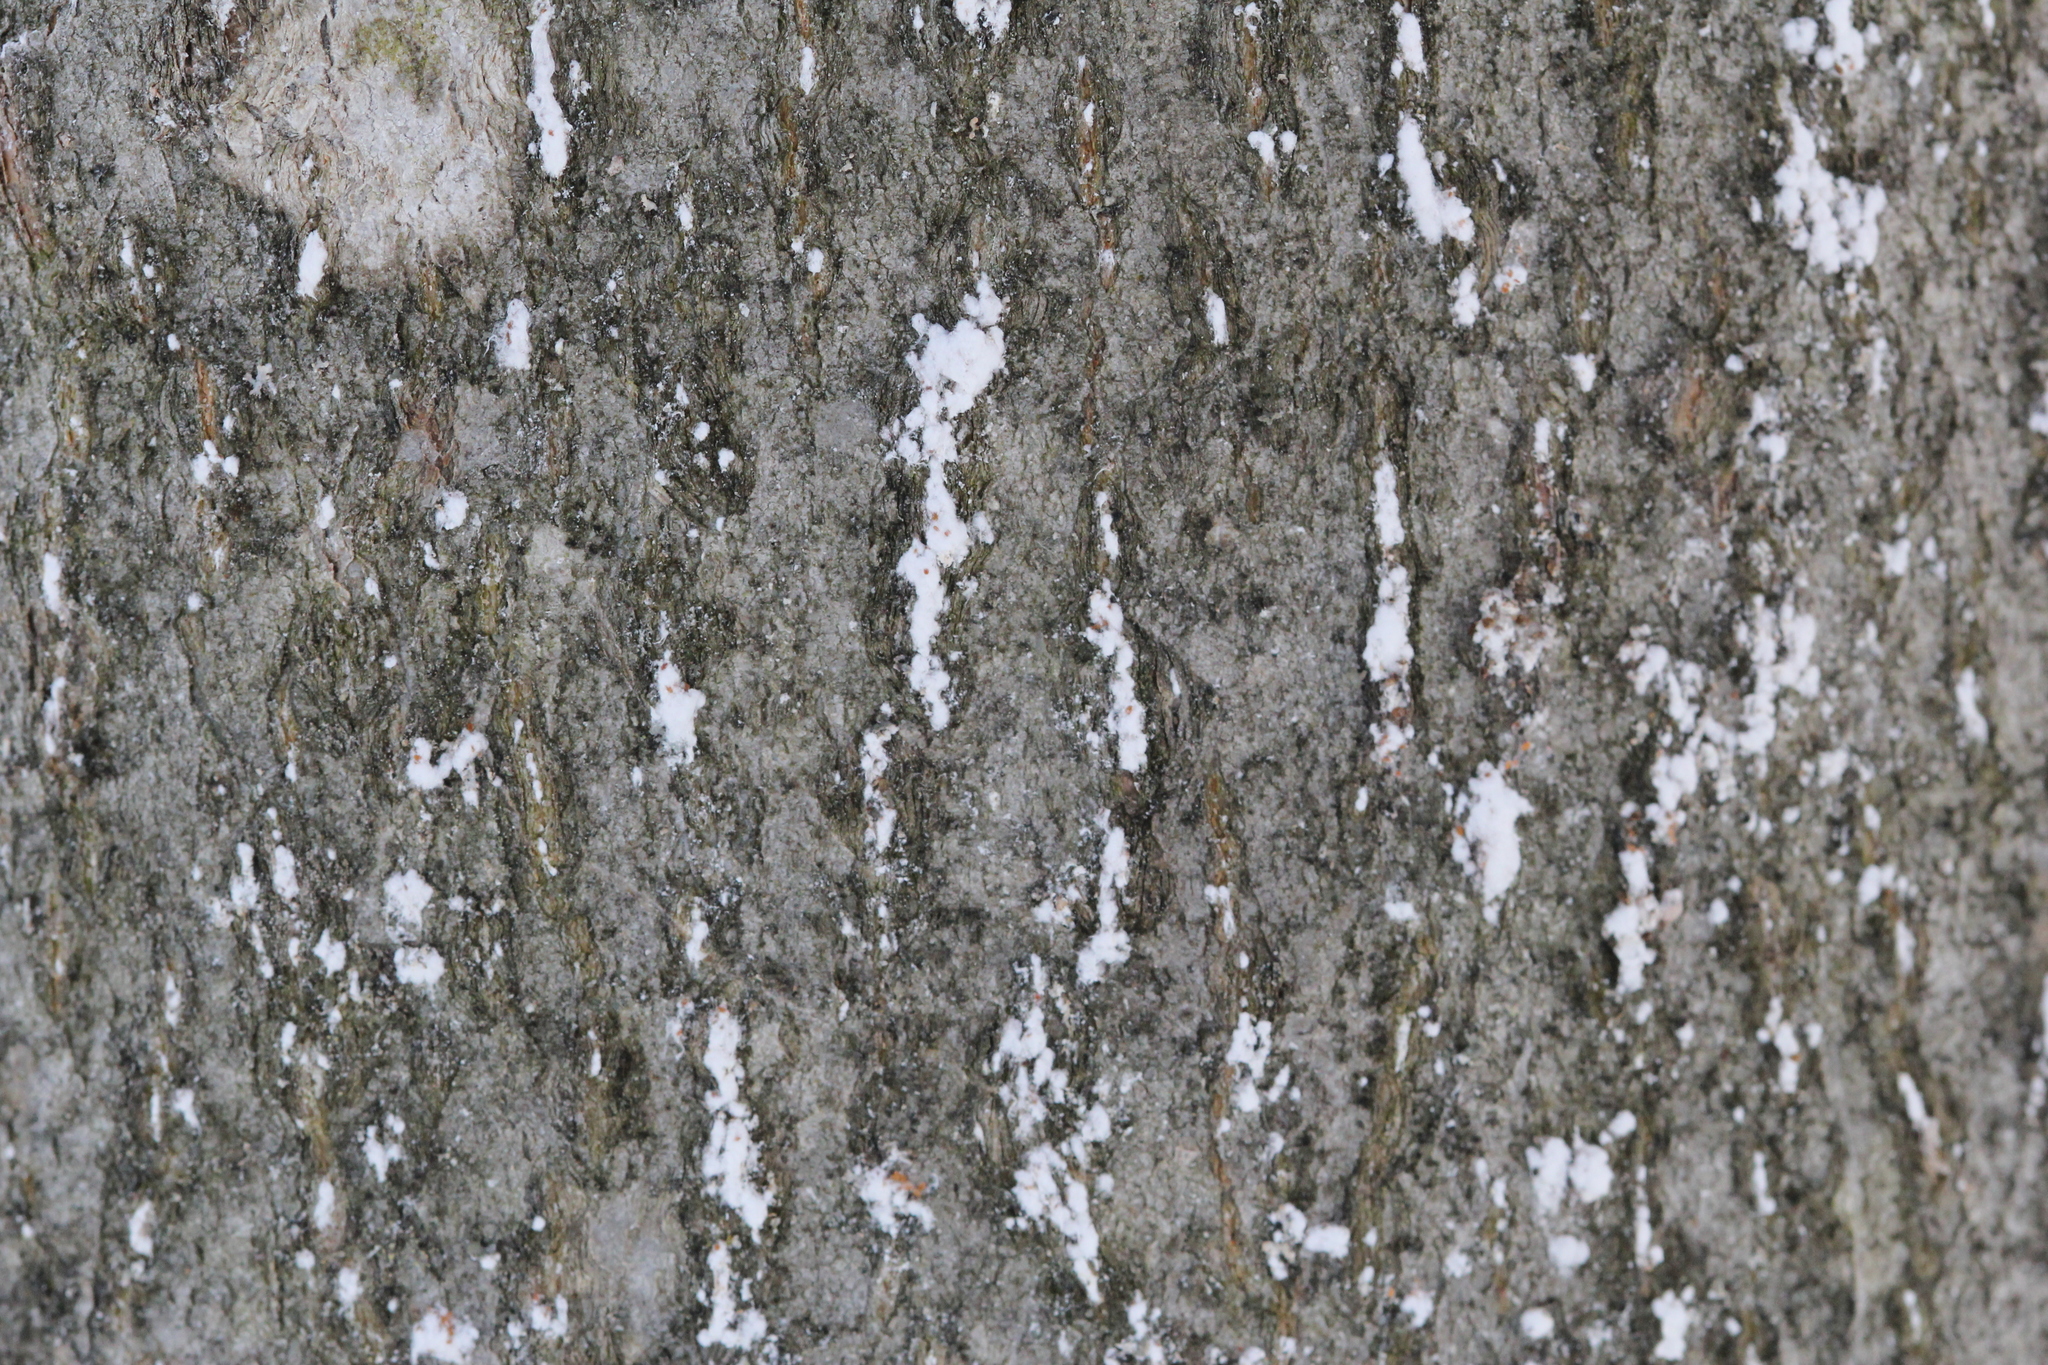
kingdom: Animalia
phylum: Arthropoda
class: Insecta
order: Hemiptera
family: Eriococcidae
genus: Cryptococcus
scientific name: Cryptococcus fagisuga
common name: Beech scale
